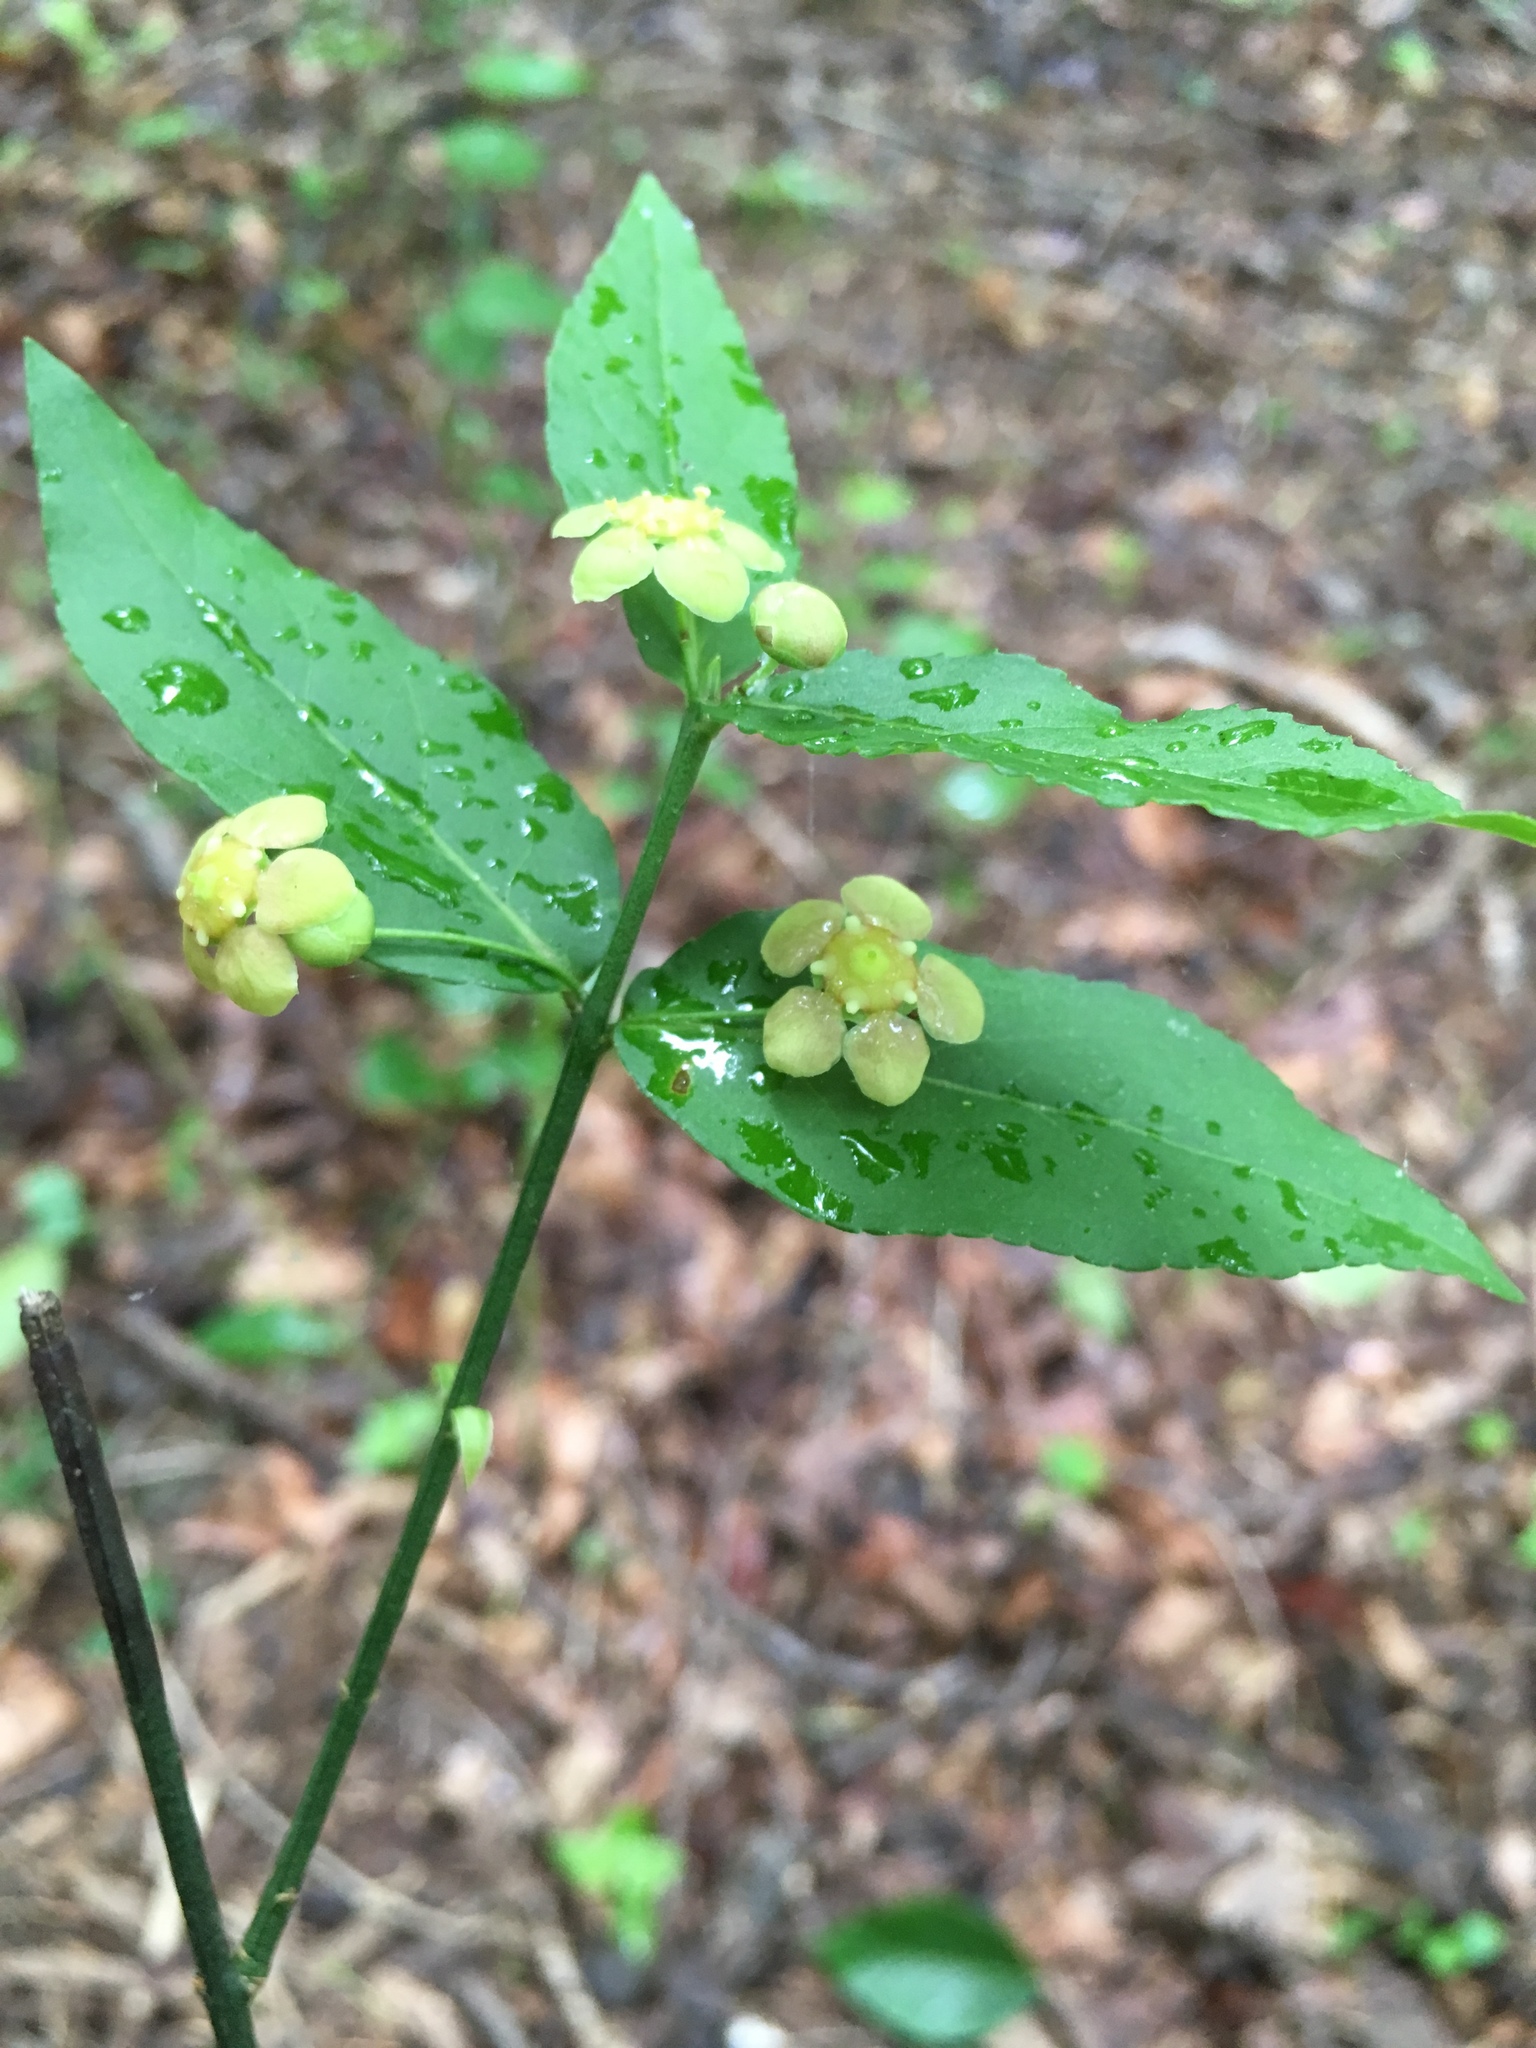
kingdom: Plantae
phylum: Tracheophyta
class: Magnoliopsida
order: Celastrales
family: Celastraceae
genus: Euonymus
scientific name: Euonymus americanus
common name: Bursting-heart
